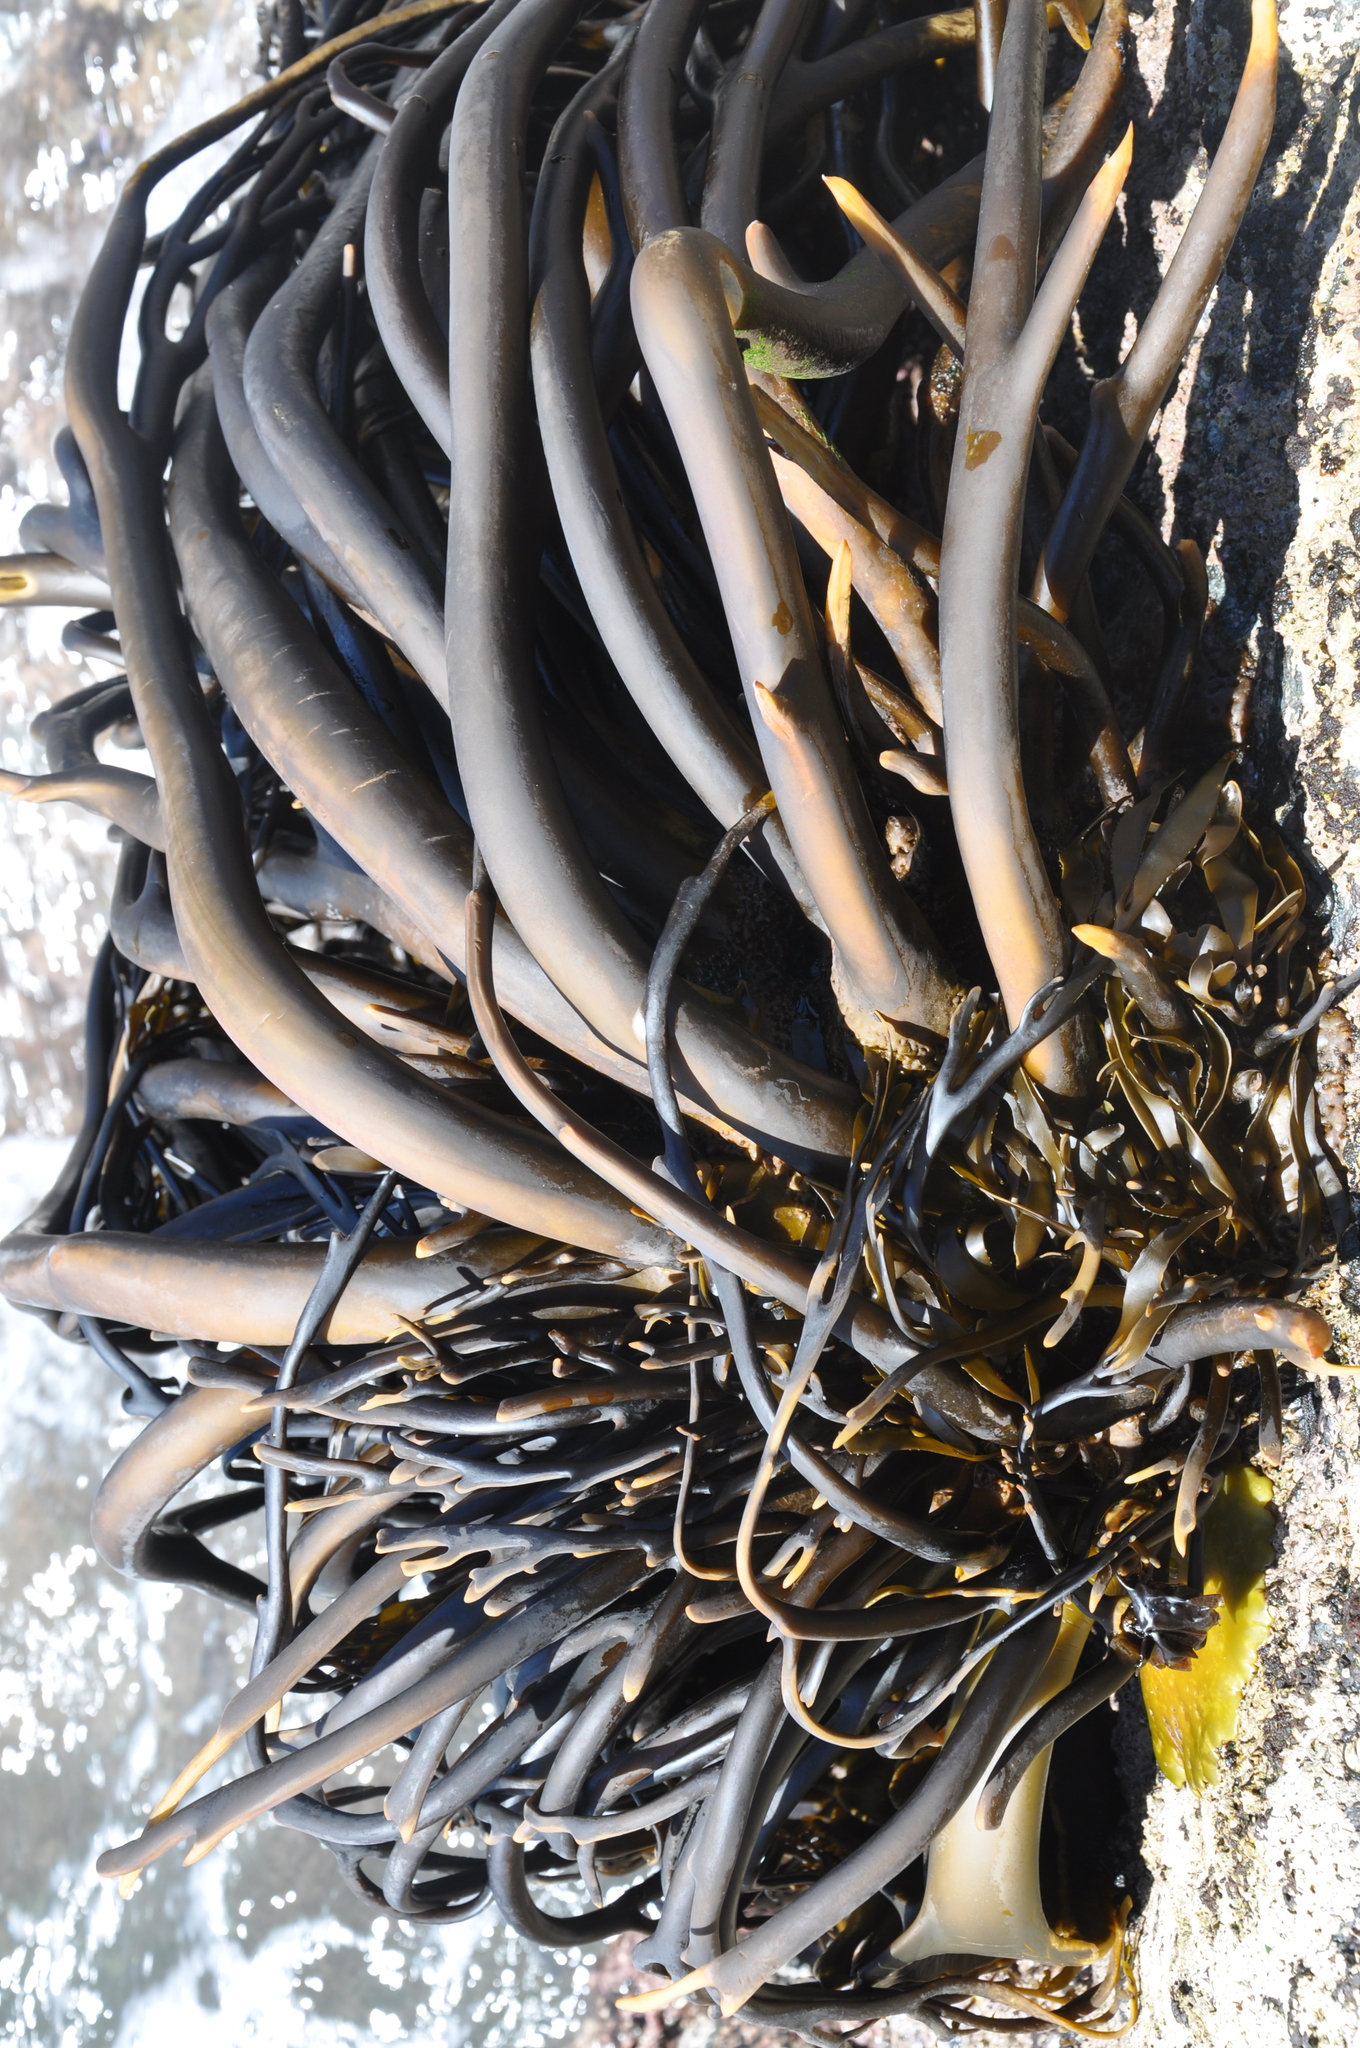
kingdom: Chromista
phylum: Ochrophyta
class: Phaeophyceae
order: Laminariales
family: Lessoniaceae
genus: Lessonia
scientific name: Lessonia spicata
